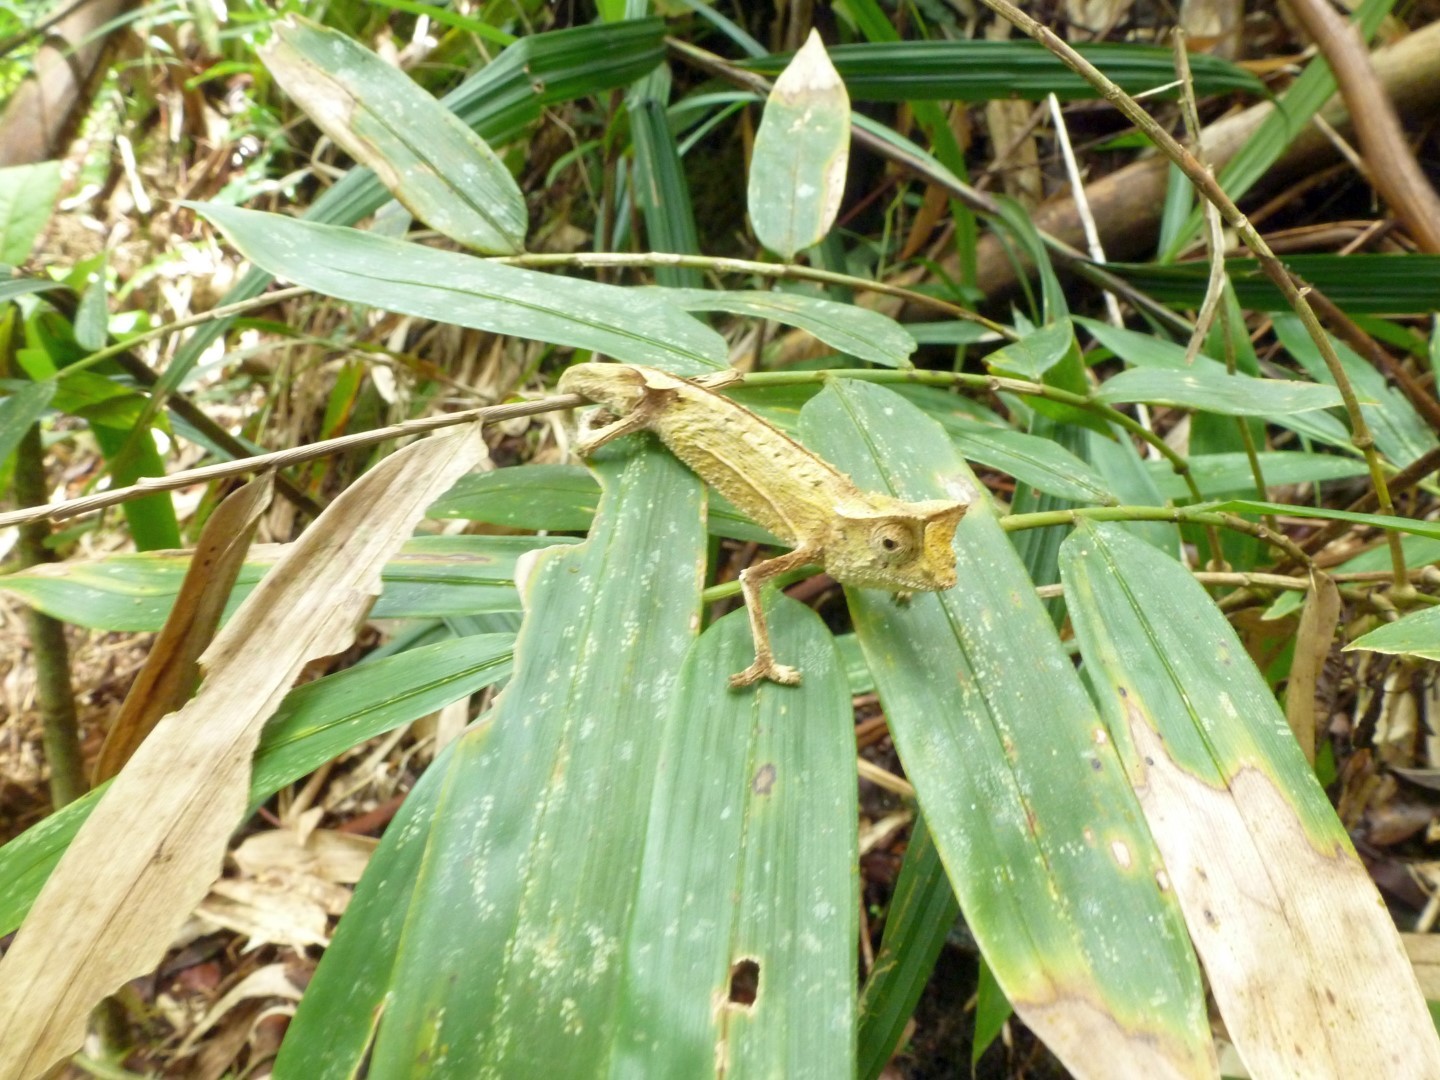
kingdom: Animalia
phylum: Chordata
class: Squamata
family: Chamaeleonidae
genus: Brookesia
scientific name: Brookesia griveaudi
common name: Marojejy leaf chameleon
